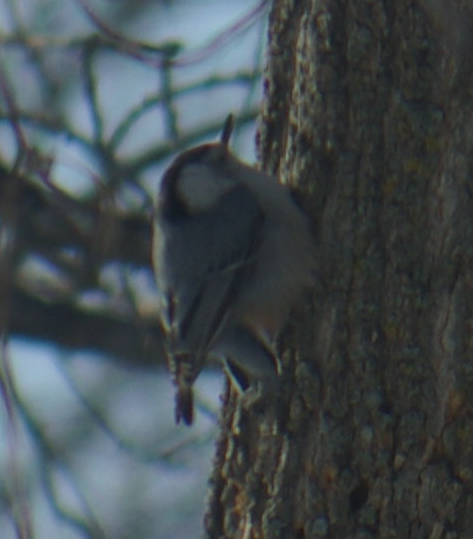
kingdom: Animalia
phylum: Chordata
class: Aves
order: Passeriformes
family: Sittidae
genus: Sitta
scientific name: Sitta carolinensis
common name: White-breasted nuthatch
